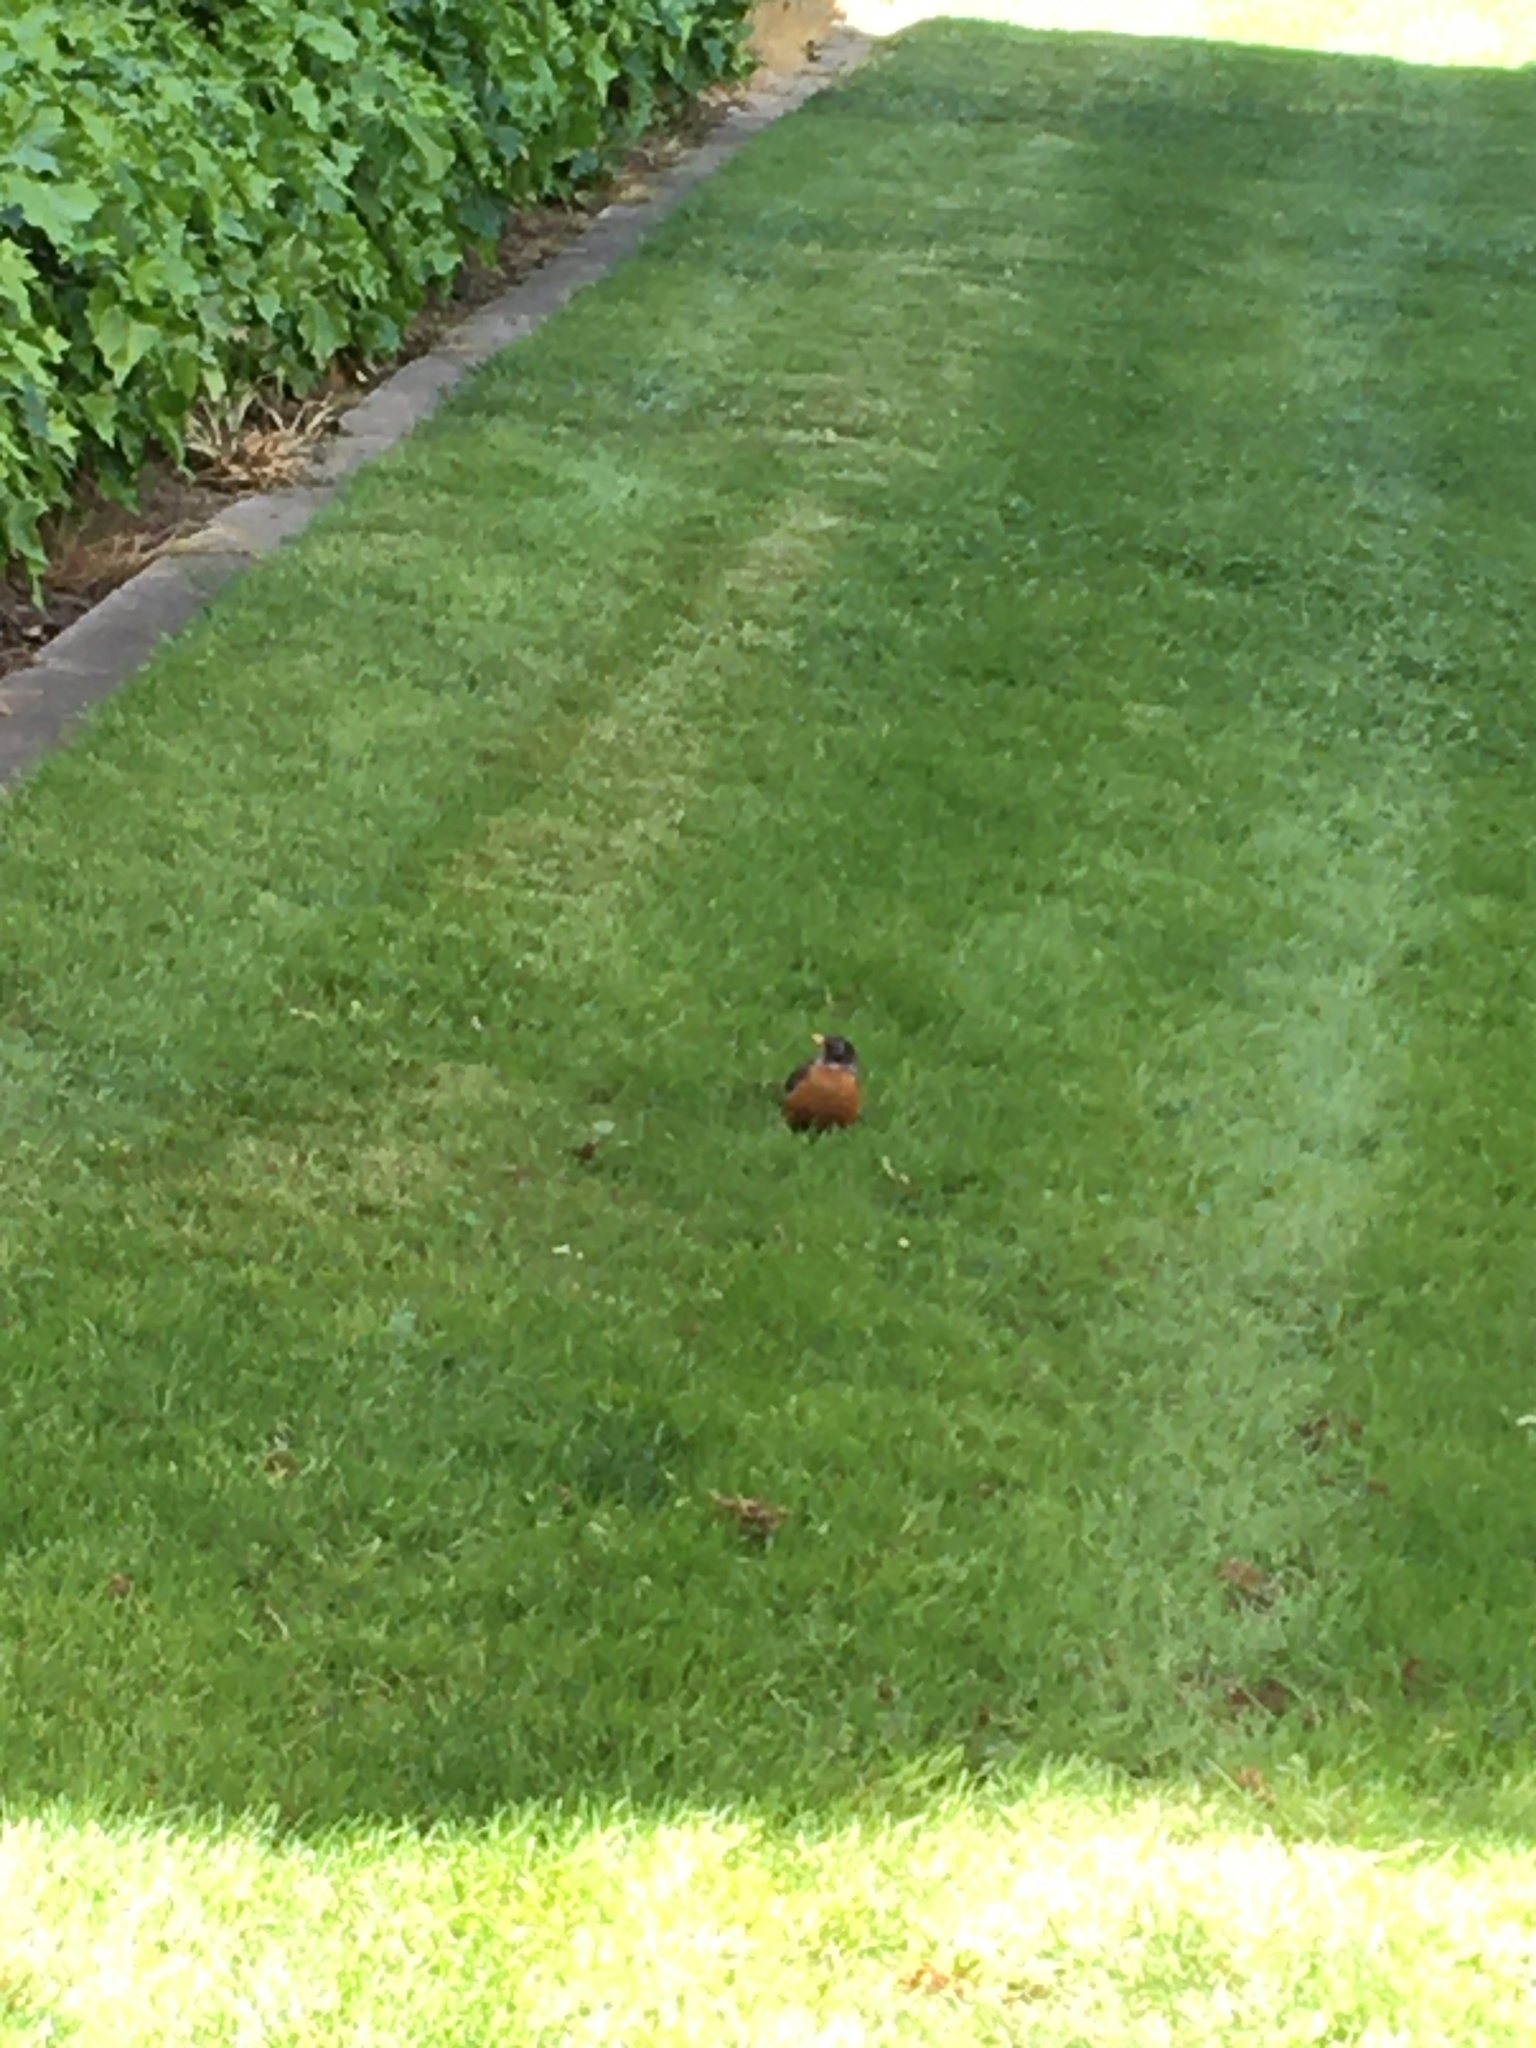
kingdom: Animalia
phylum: Chordata
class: Aves
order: Passeriformes
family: Turdidae
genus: Turdus
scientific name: Turdus migratorius
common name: American robin
